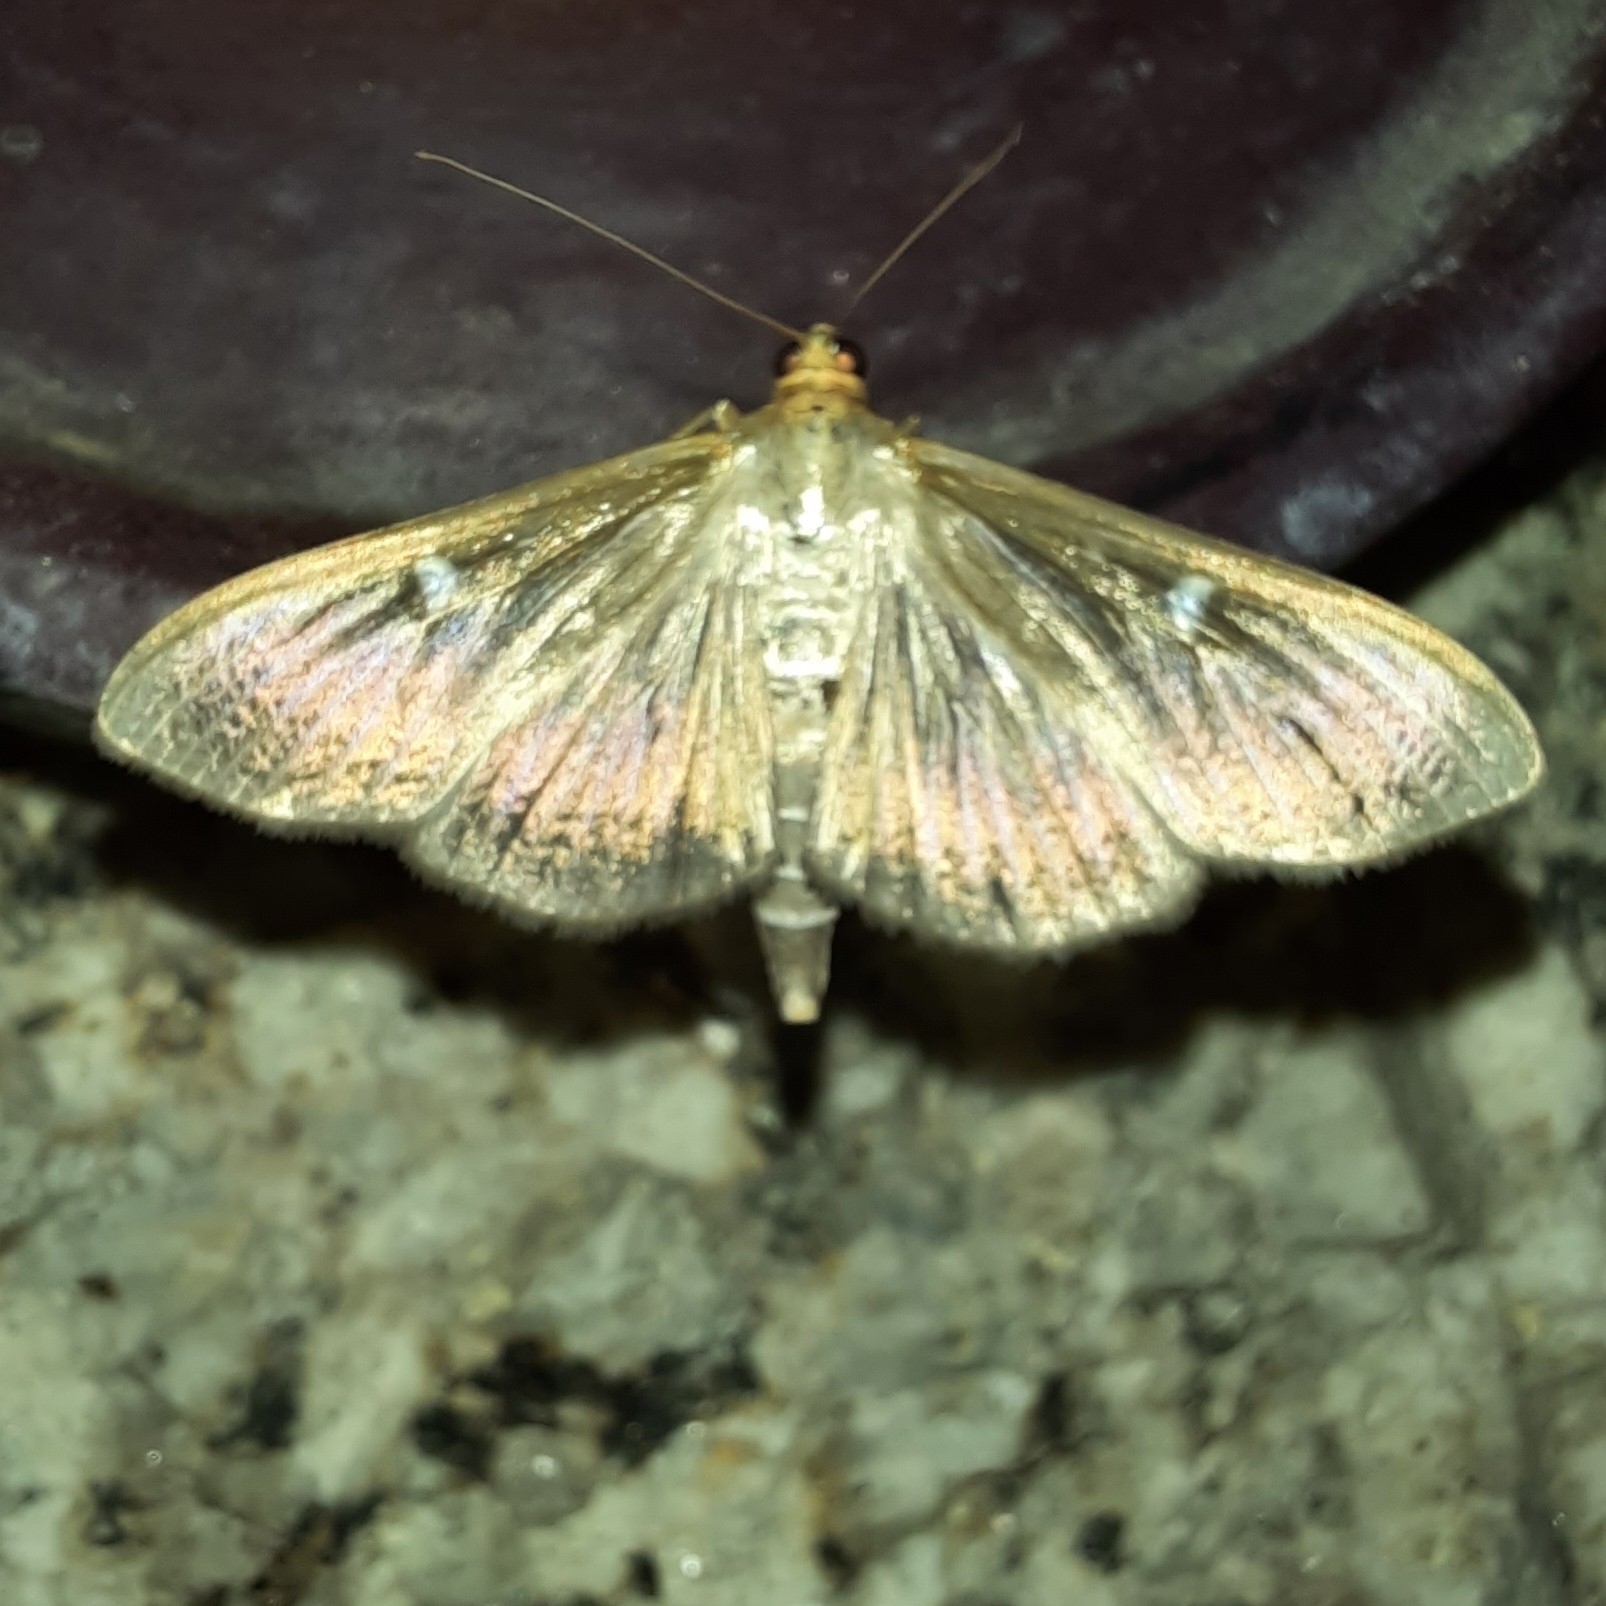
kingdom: Animalia
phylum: Arthropoda
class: Insecta
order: Lepidoptera
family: Crambidae
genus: Cydalima
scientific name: Cydalima perspectalis
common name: Box tree moth
